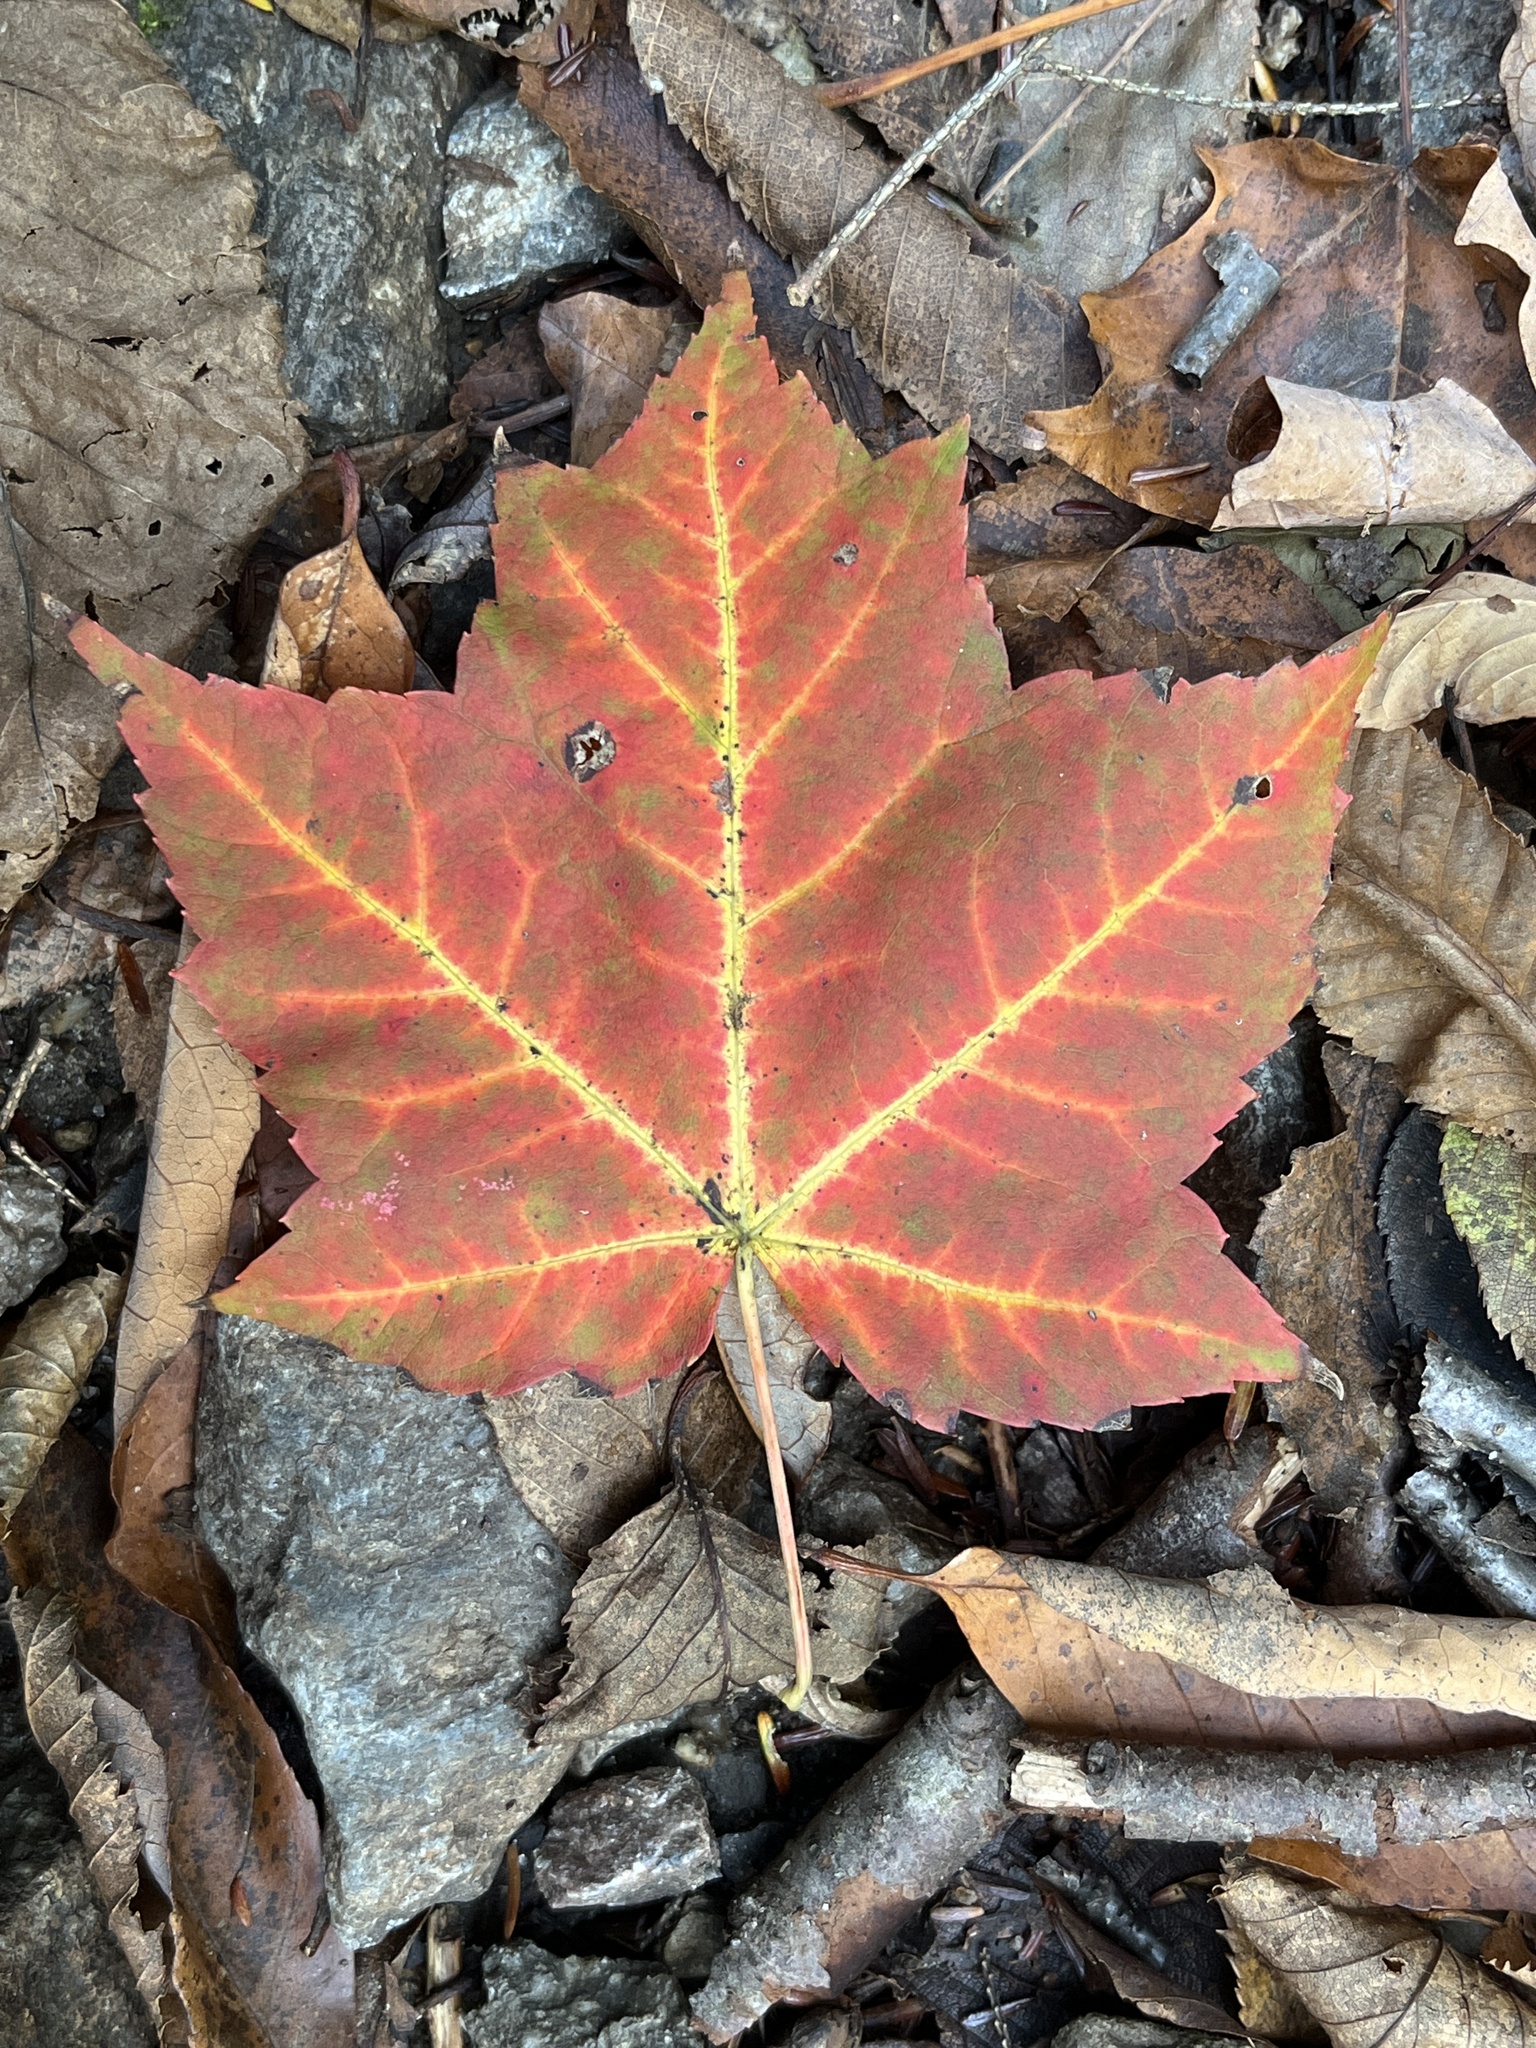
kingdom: Plantae
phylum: Tracheophyta
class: Magnoliopsida
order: Sapindales
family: Sapindaceae
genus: Acer
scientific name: Acer rubrum
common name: Red maple
